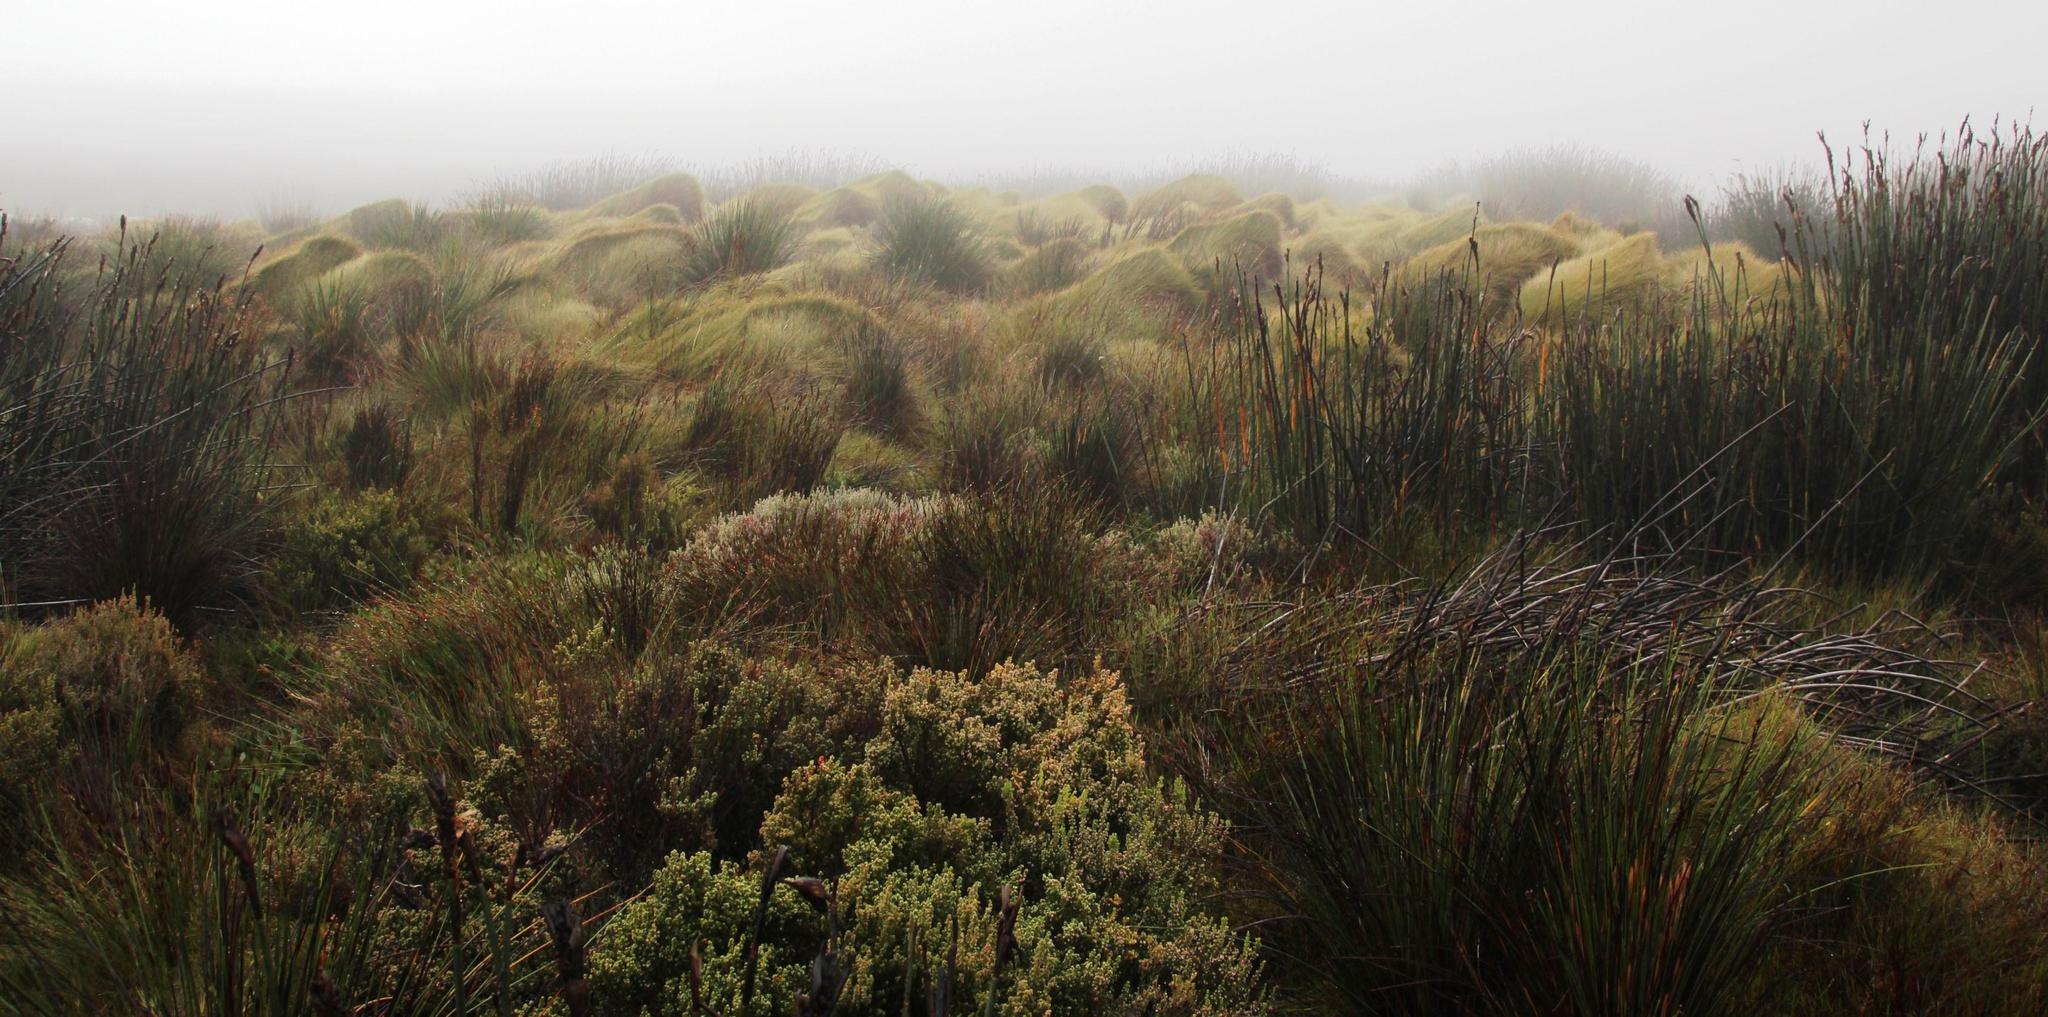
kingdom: Plantae
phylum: Tracheophyta
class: Liliopsida
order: Poales
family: Restionaceae
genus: Anthochortus
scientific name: Anthochortus crinalis
